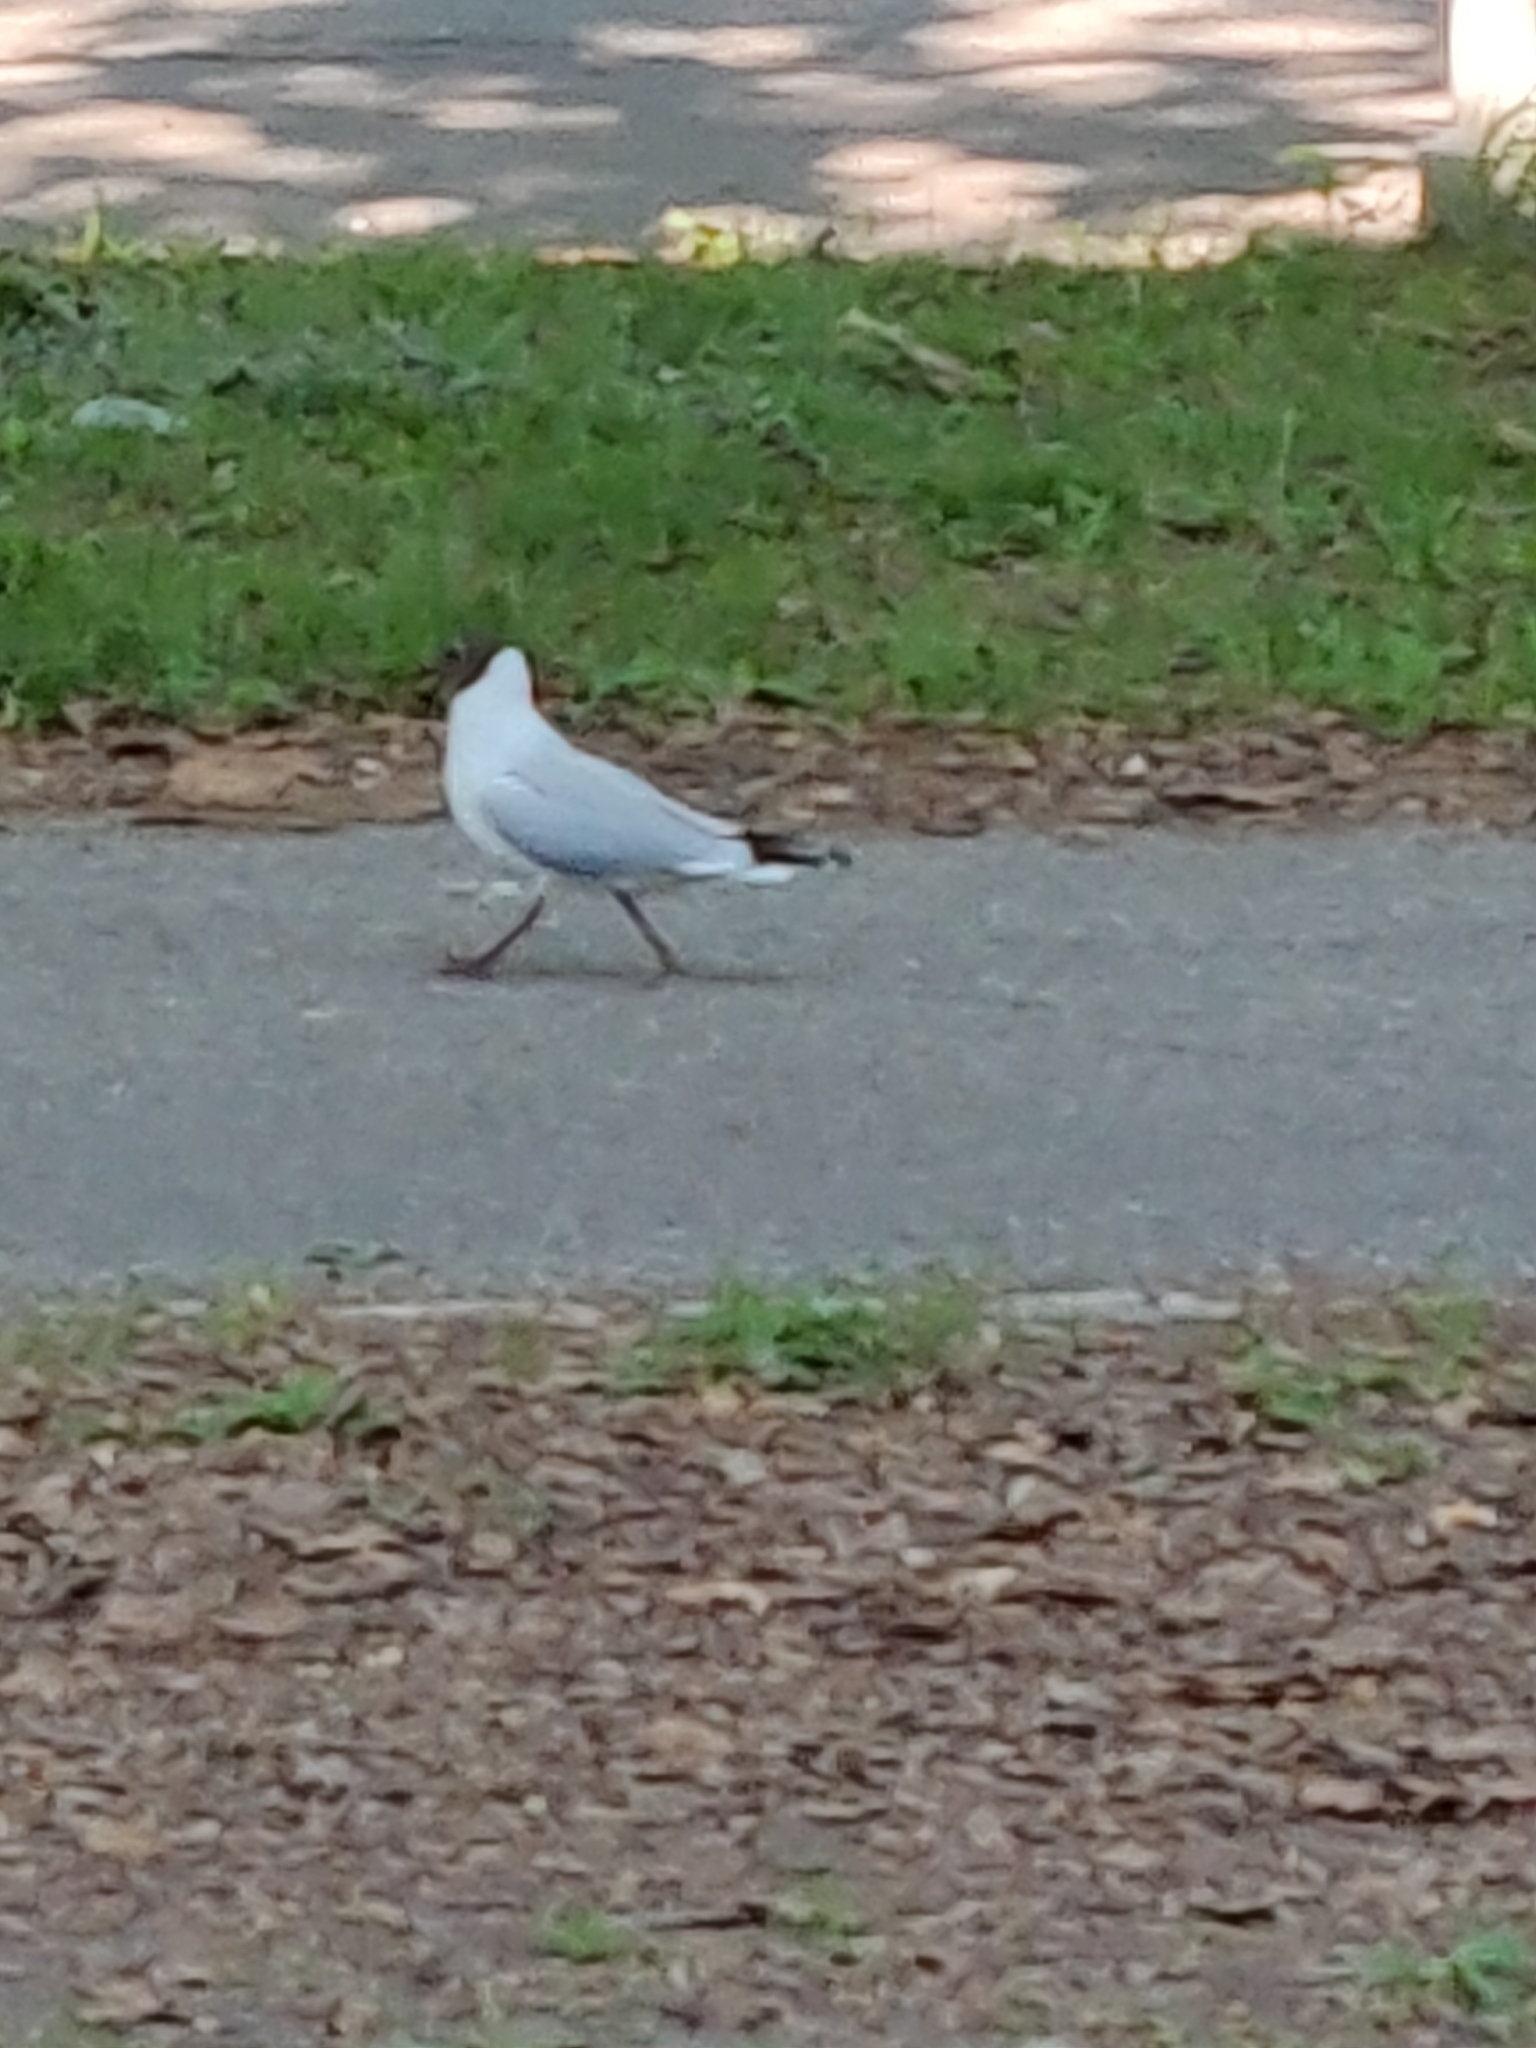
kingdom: Animalia
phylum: Chordata
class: Aves
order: Charadriiformes
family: Laridae
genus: Chroicocephalus
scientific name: Chroicocephalus ridibundus
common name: Black-headed gull
